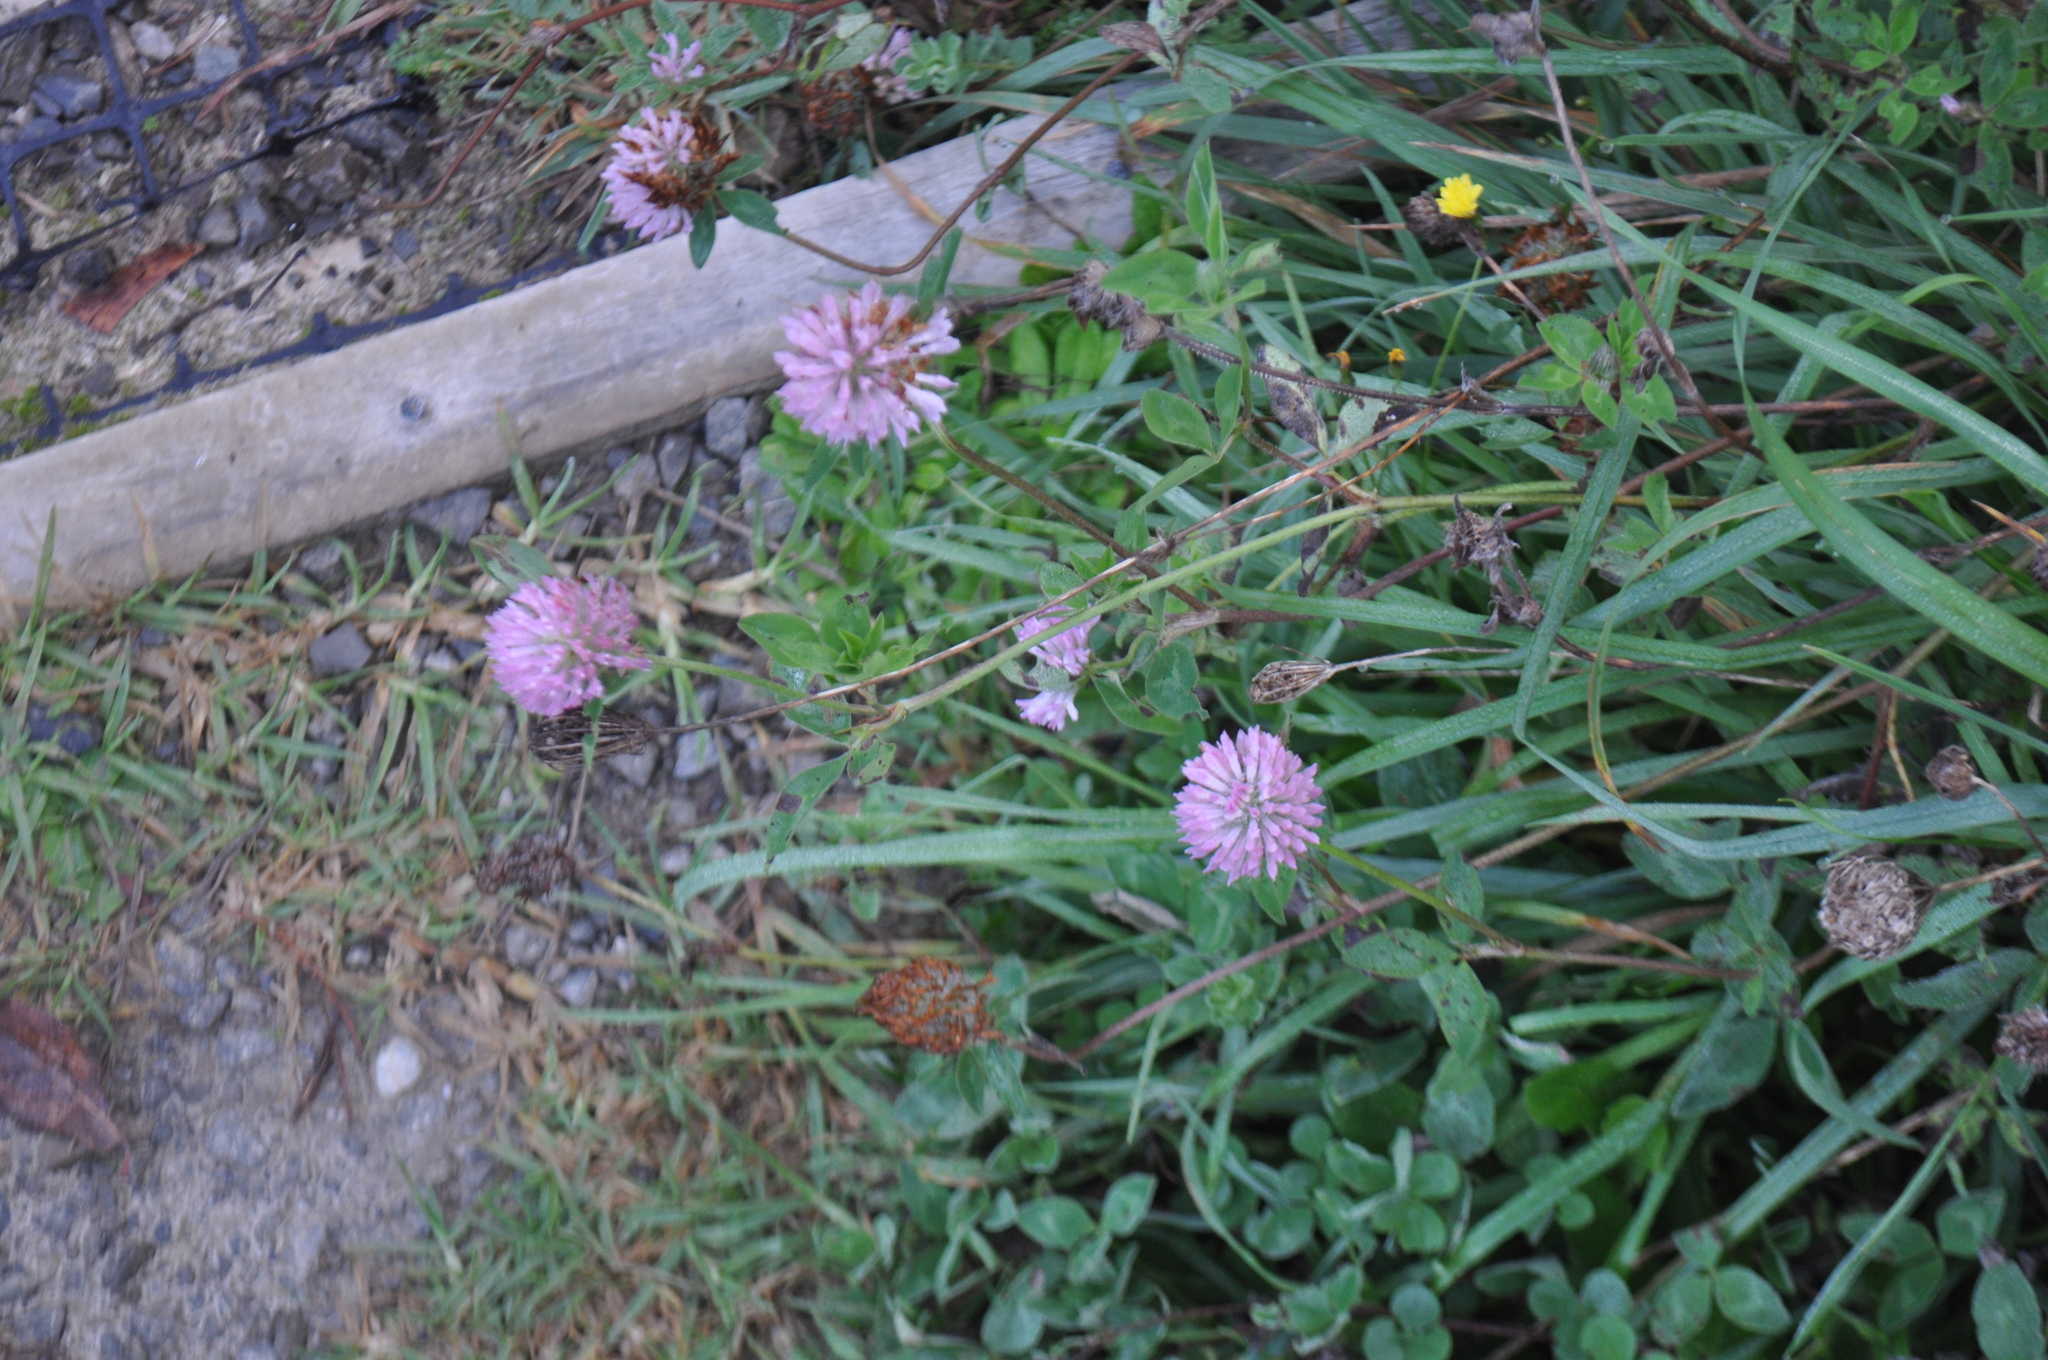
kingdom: Plantae
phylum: Tracheophyta
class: Magnoliopsida
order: Fabales
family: Fabaceae
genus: Trifolium
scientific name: Trifolium pratense
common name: Red clover
